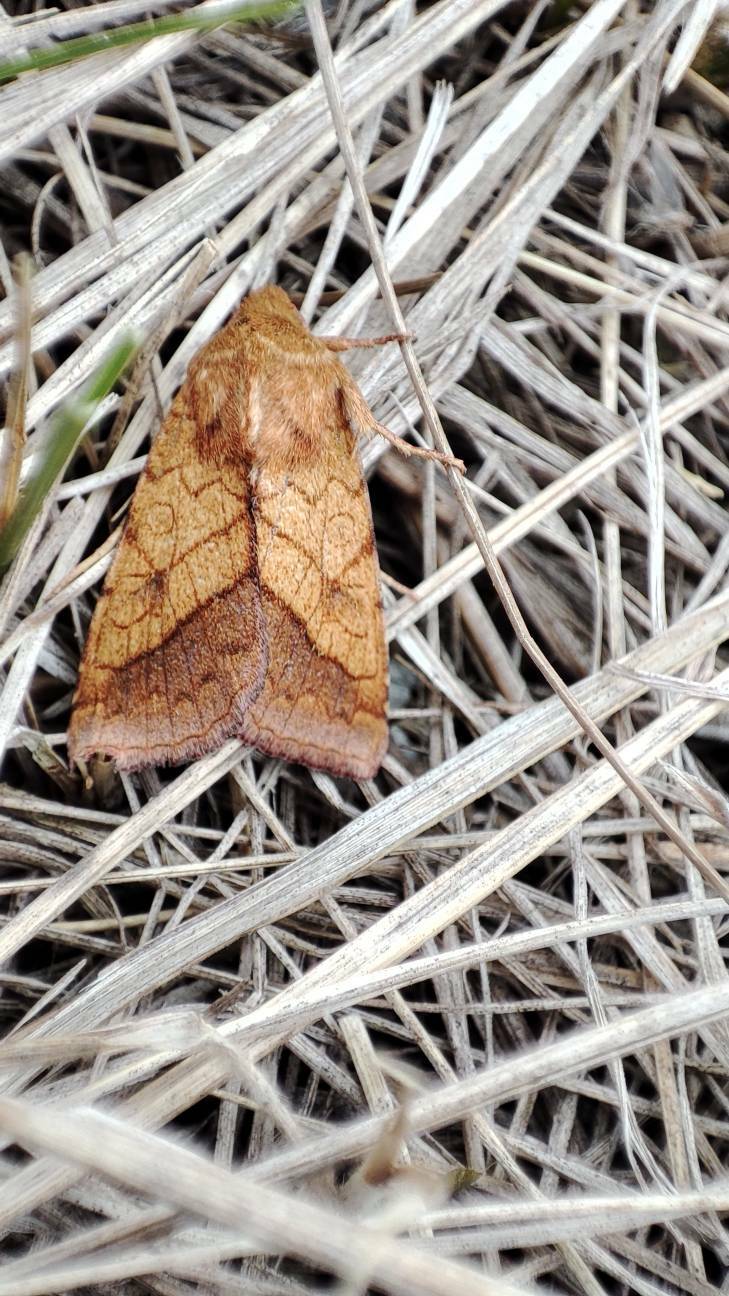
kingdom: Animalia
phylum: Arthropoda
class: Insecta
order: Lepidoptera
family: Noctuidae
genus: Pyrrhia
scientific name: Pyrrhia umbra
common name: Bordered sallow
